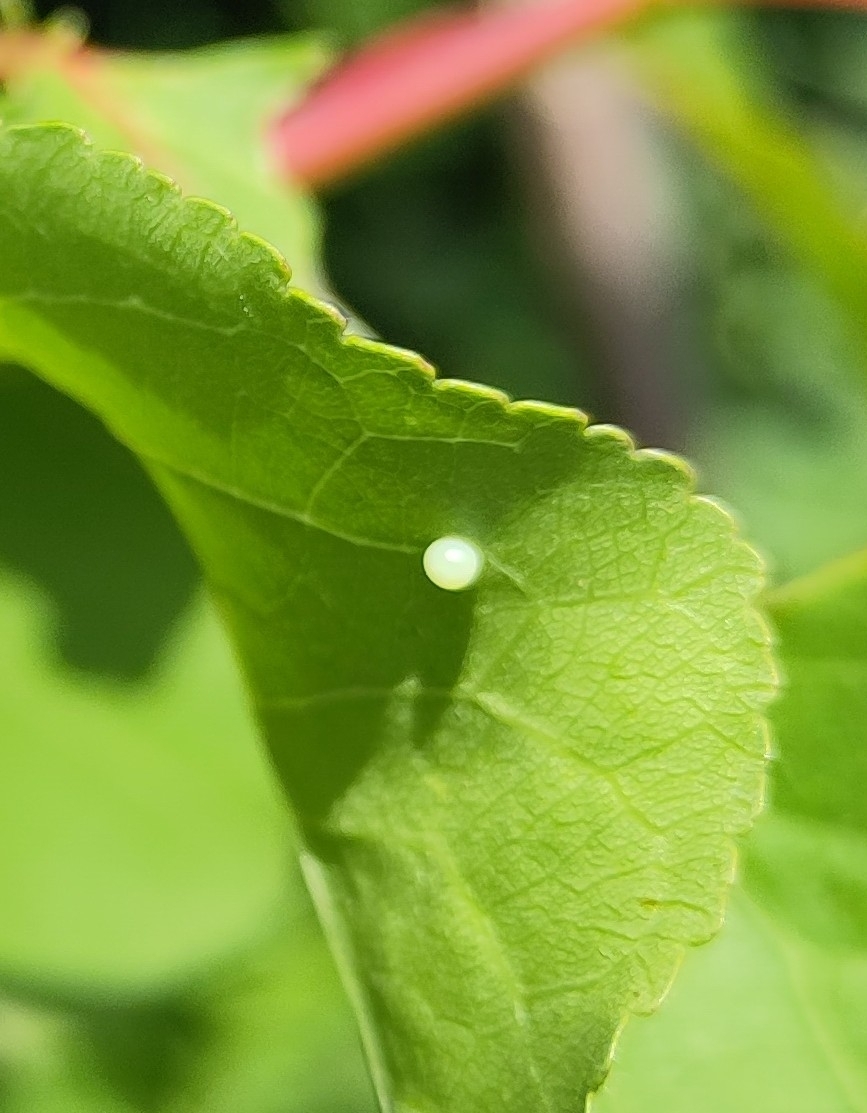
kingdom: Animalia
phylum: Arthropoda
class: Insecta
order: Lepidoptera
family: Papilionidae
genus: Iphiclides
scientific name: Iphiclides podalirius
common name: Scarce swallowtail
